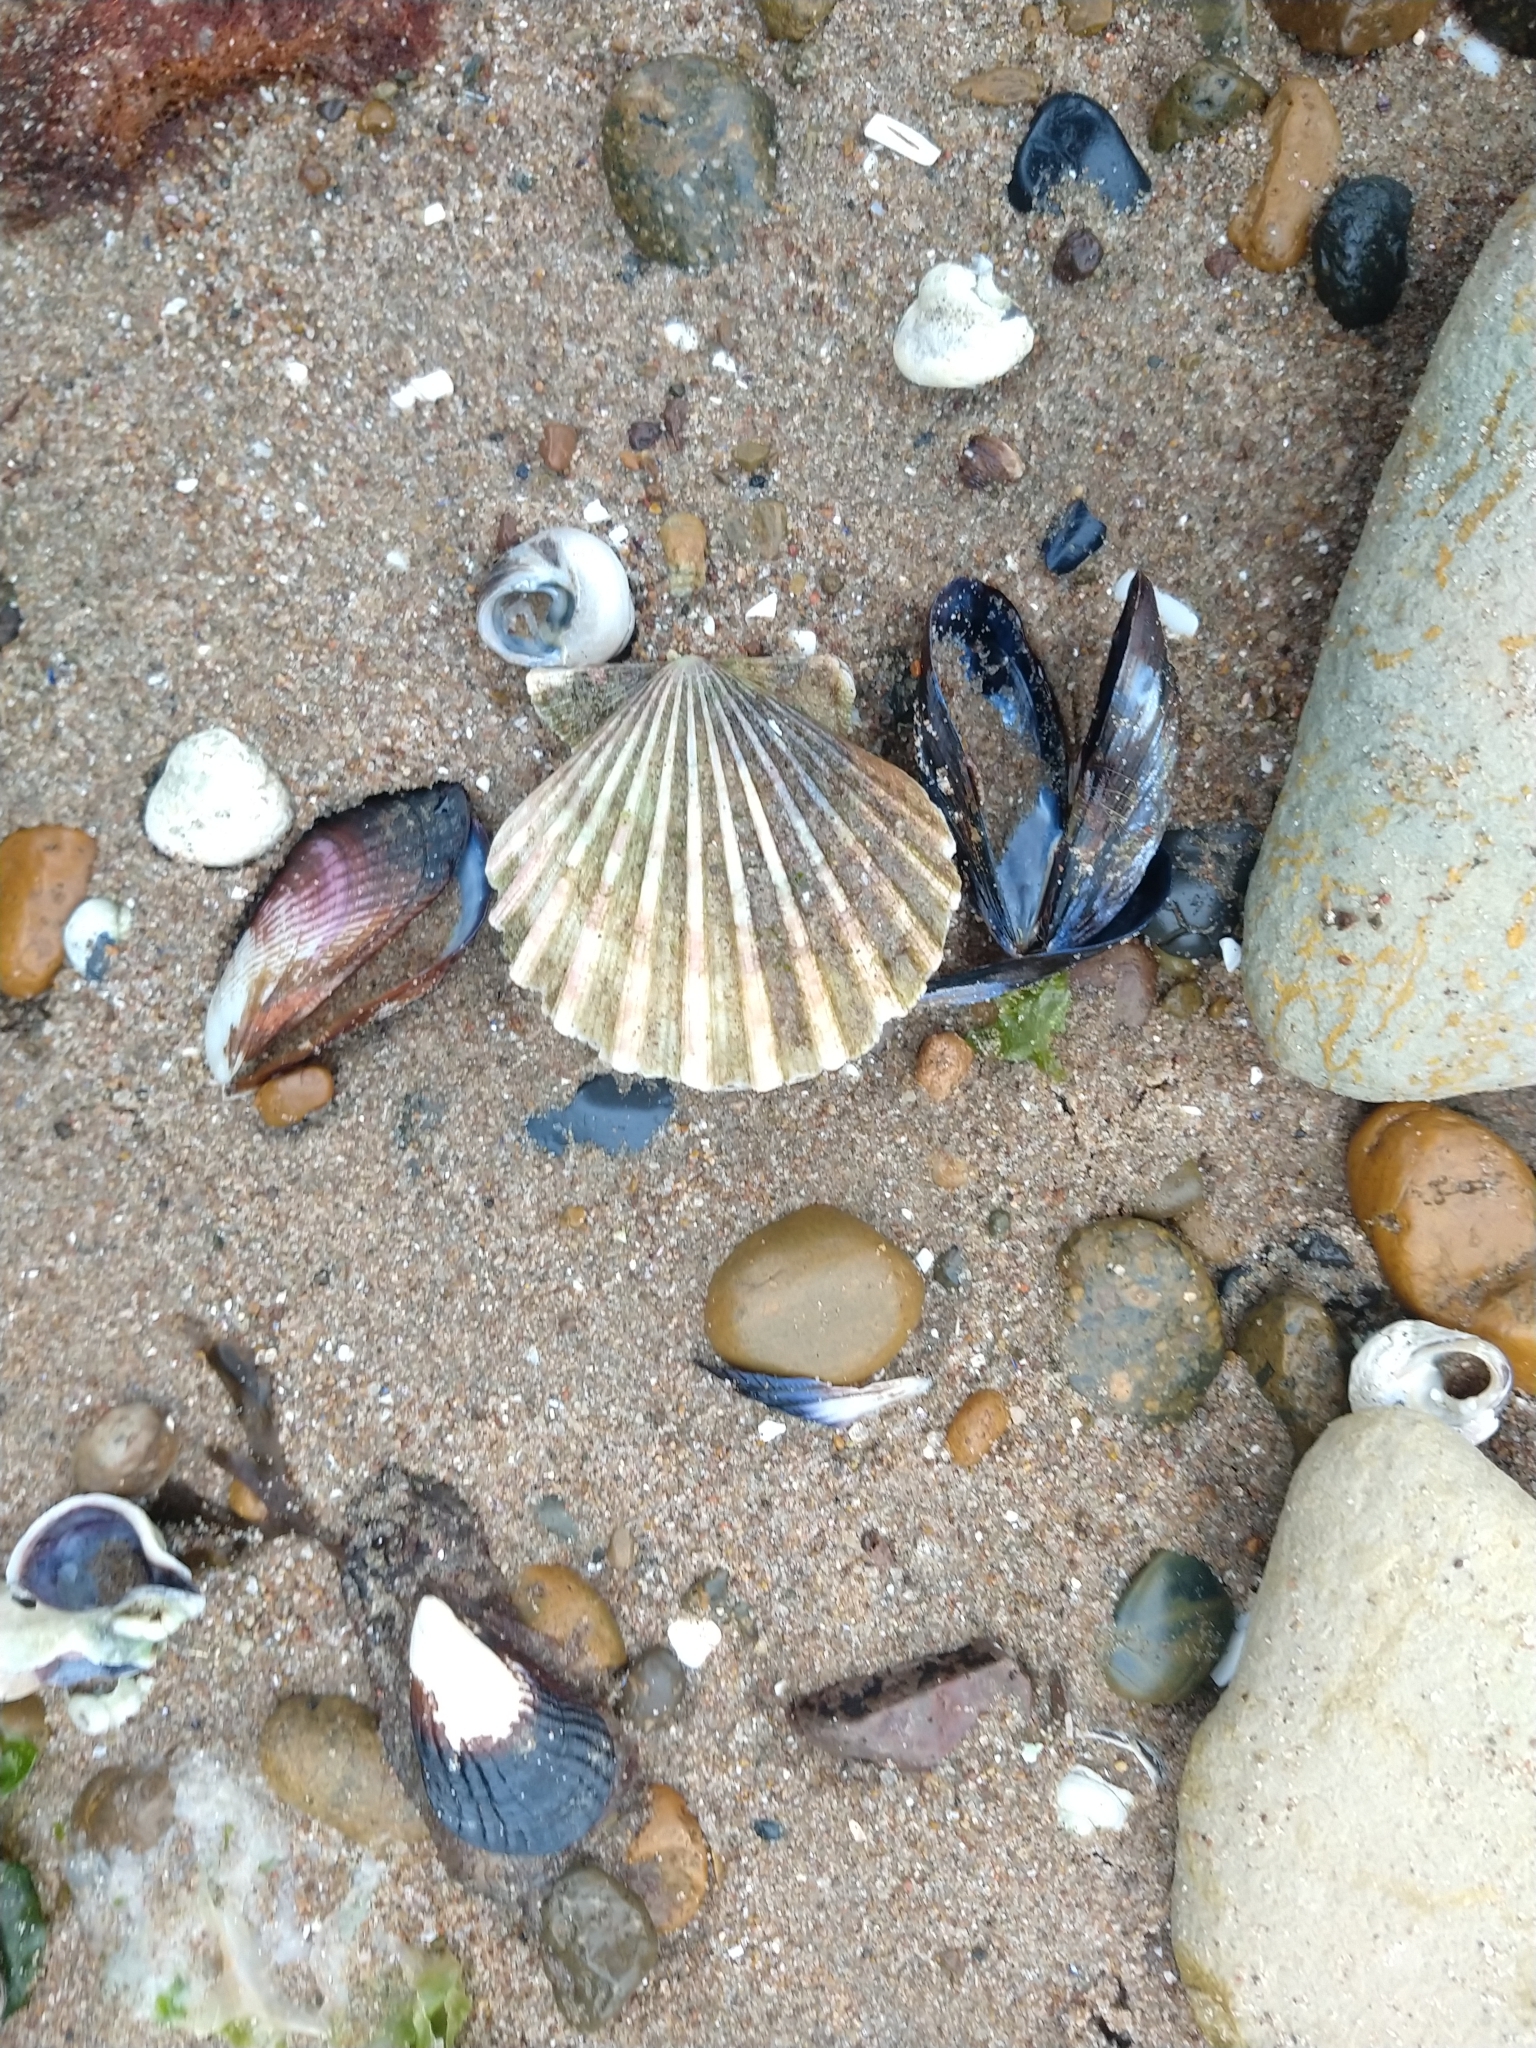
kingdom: Animalia
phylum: Mollusca
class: Bivalvia
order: Pectinida
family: Pectinidae
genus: Aequipecten
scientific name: Aequipecten tehuelchus
